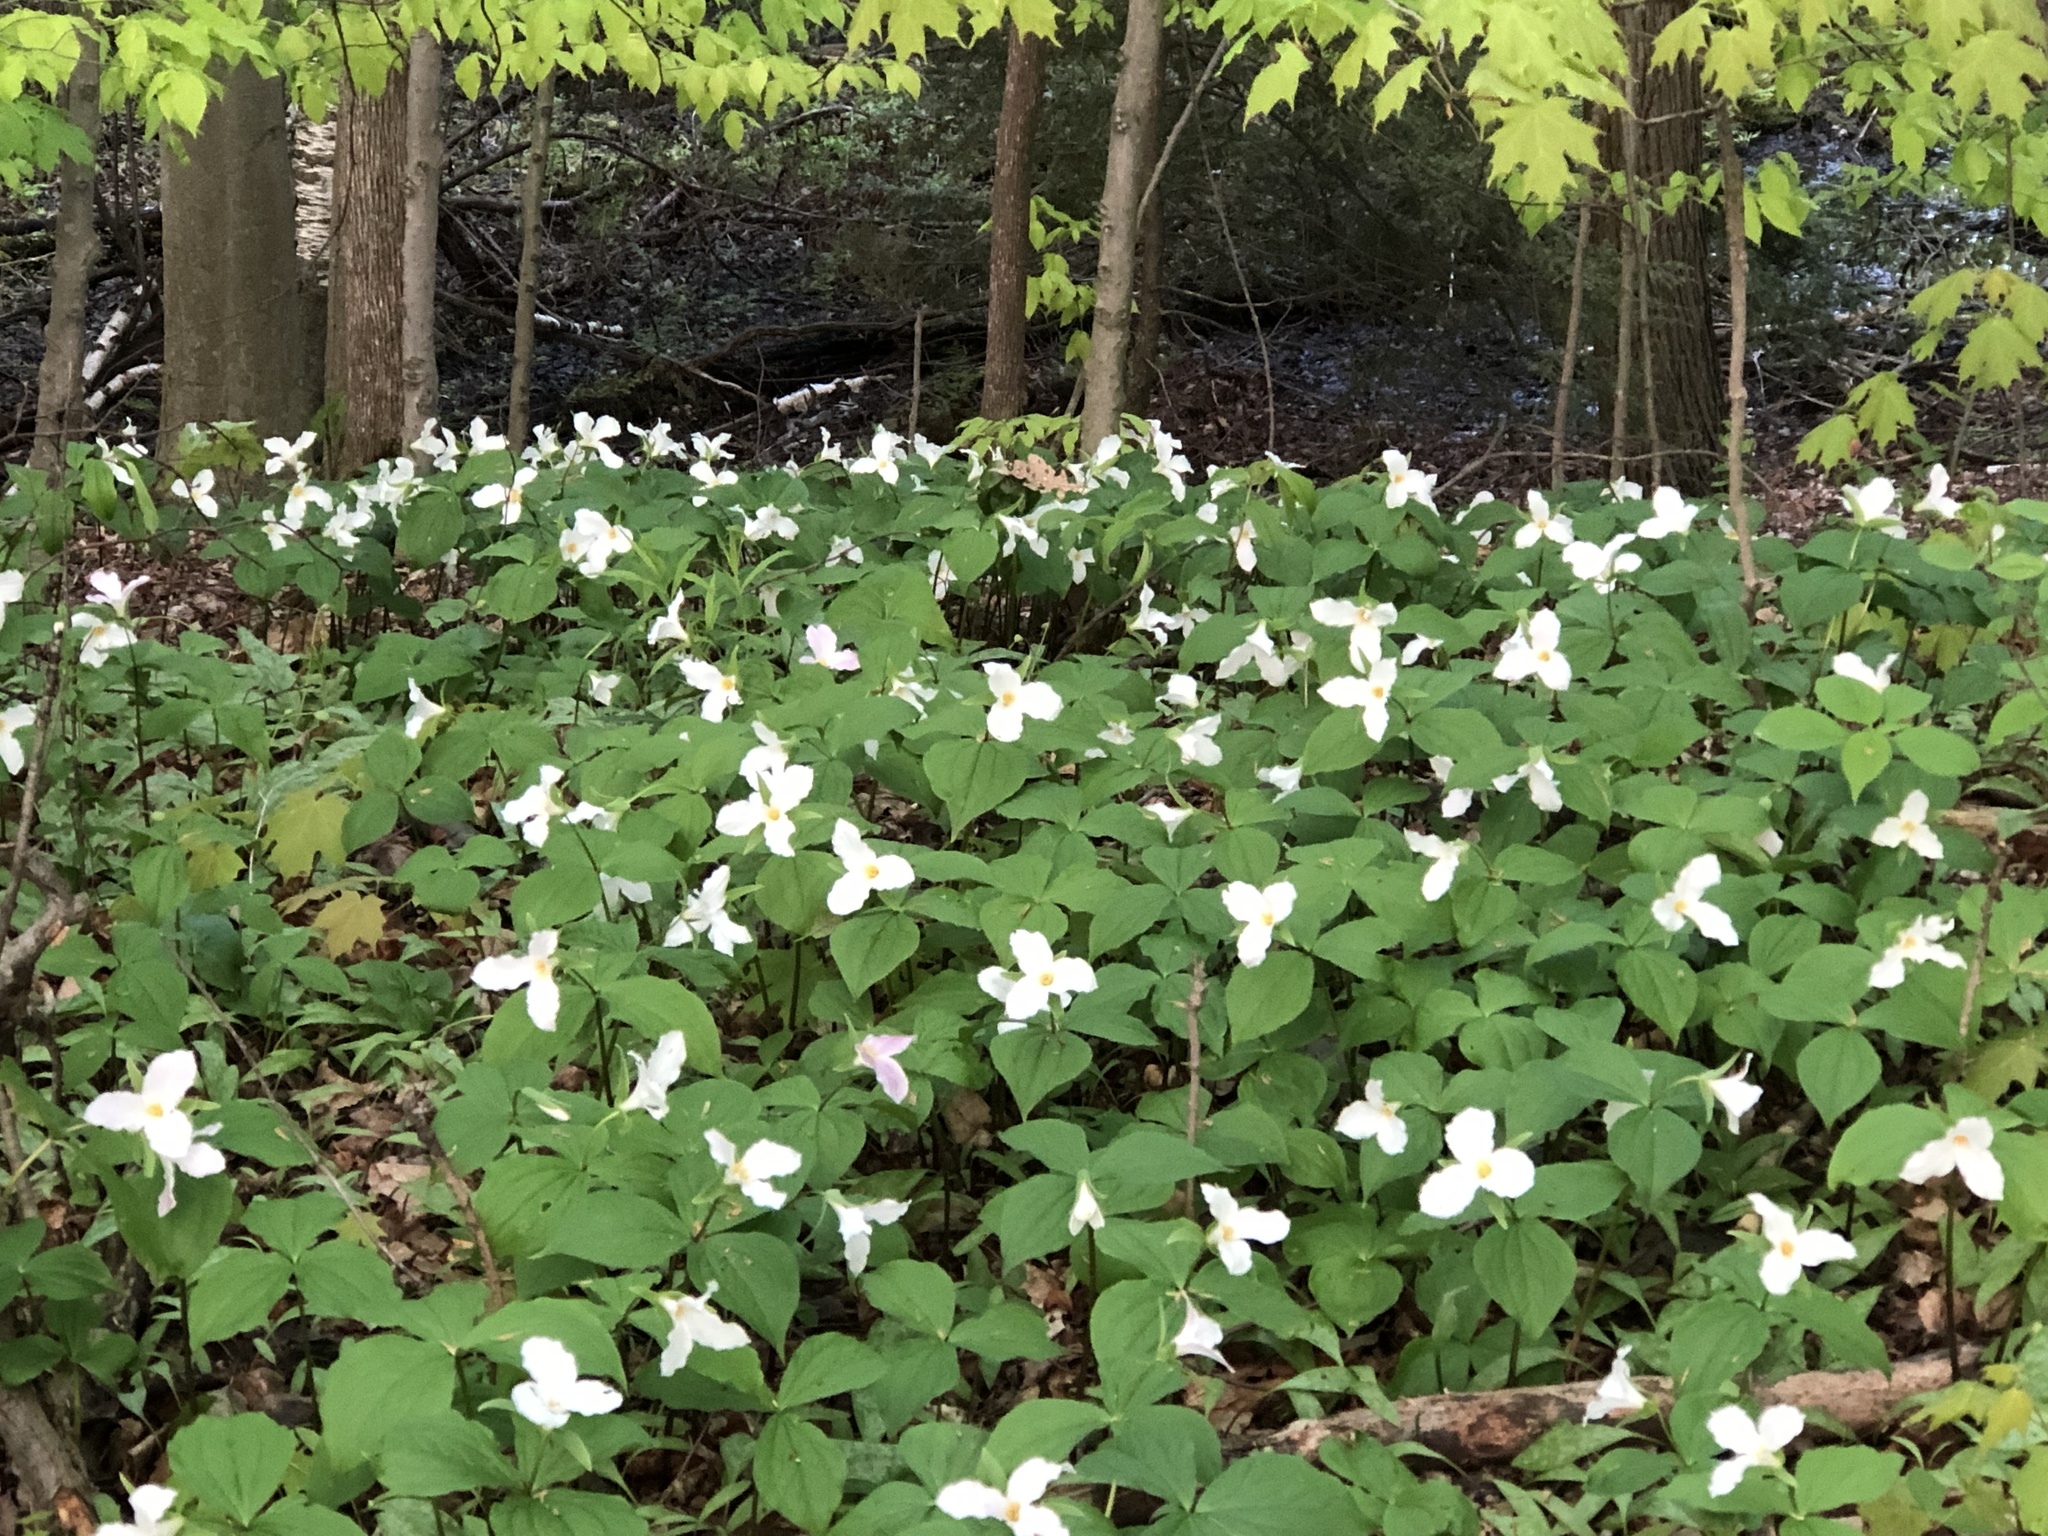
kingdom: Plantae
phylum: Tracheophyta
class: Liliopsida
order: Liliales
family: Melanthiaceae
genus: Trillium
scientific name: Trillium grandiflorum
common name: Great white trillium
